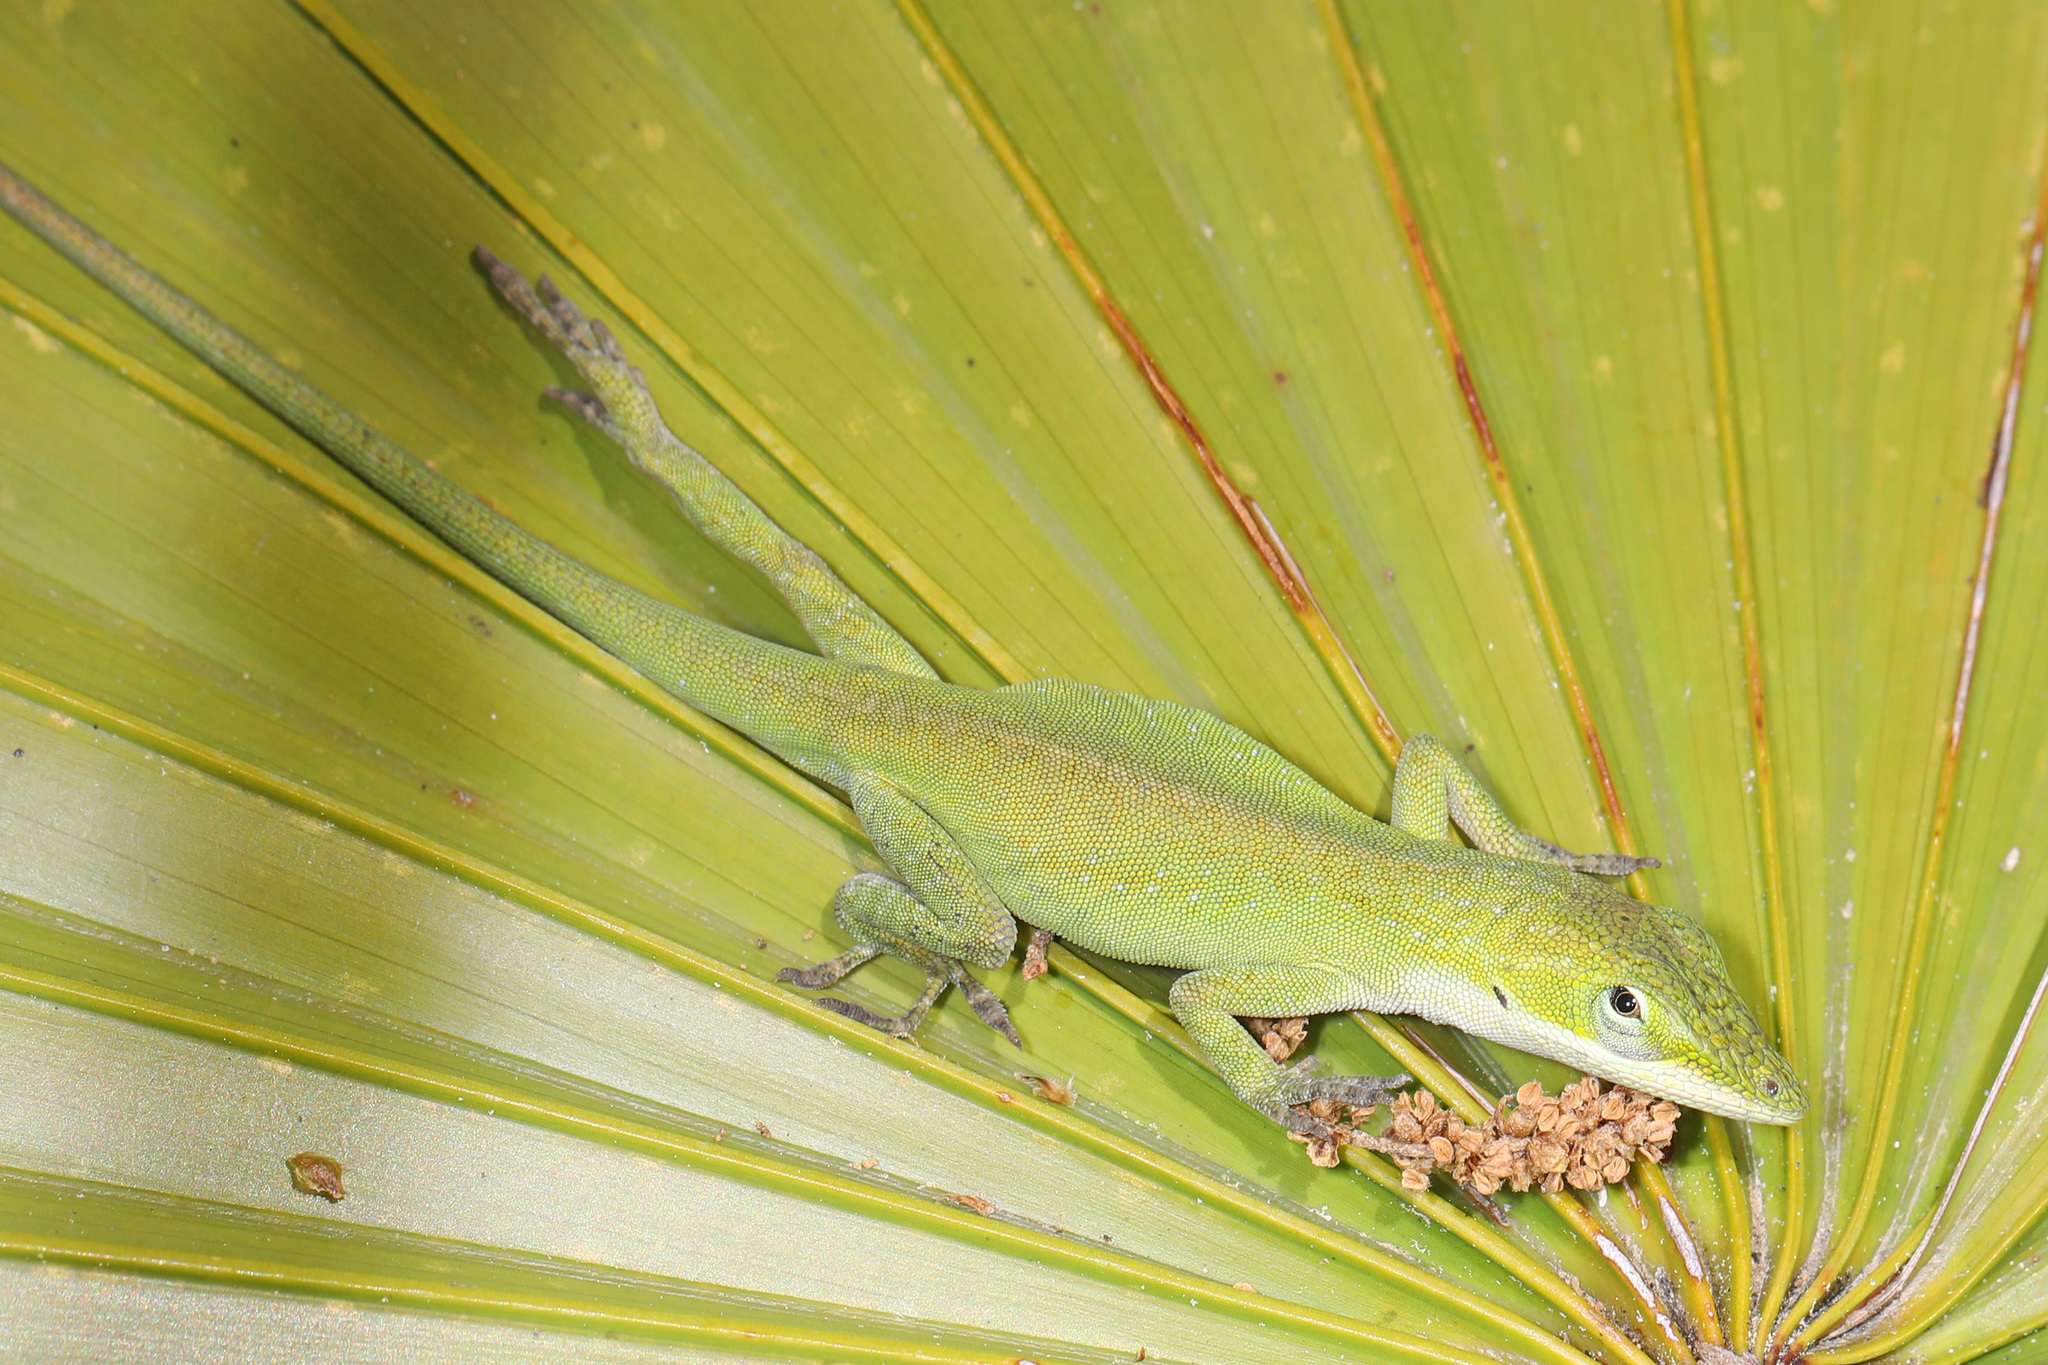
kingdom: Animalia
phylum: Chordata
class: Squamata
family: Dactyloidae
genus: Anolis
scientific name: Anolis carolinensis
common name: Green anole
